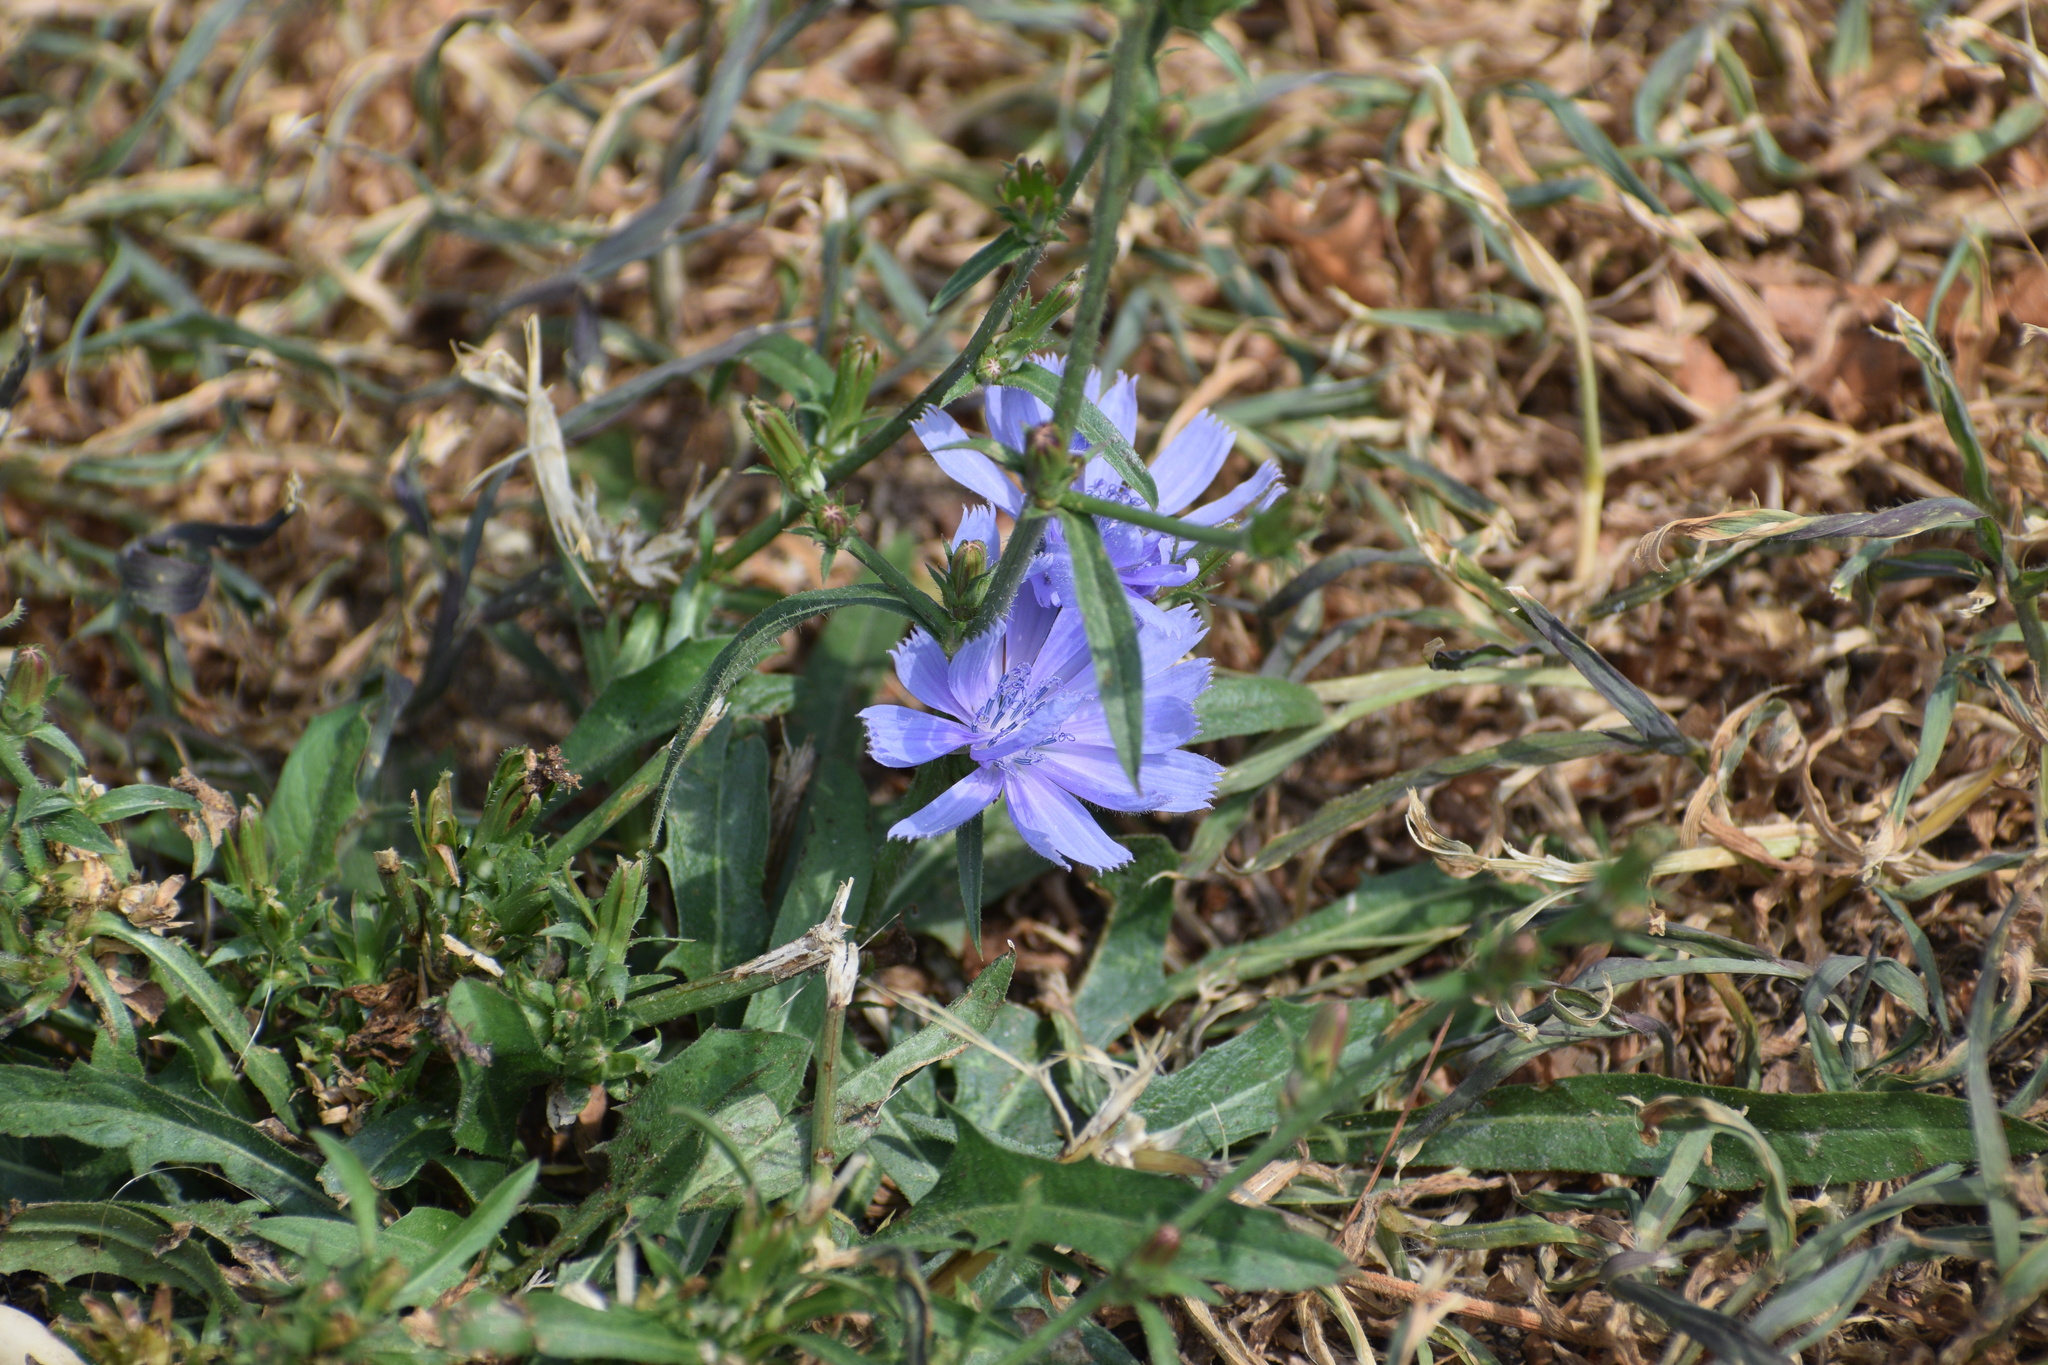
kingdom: Plantae
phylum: Tracheophyta
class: Magnoliopsida
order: Asterales
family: Asteraceae
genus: Cichorium
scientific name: Cichorium intybus
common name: Chicory
